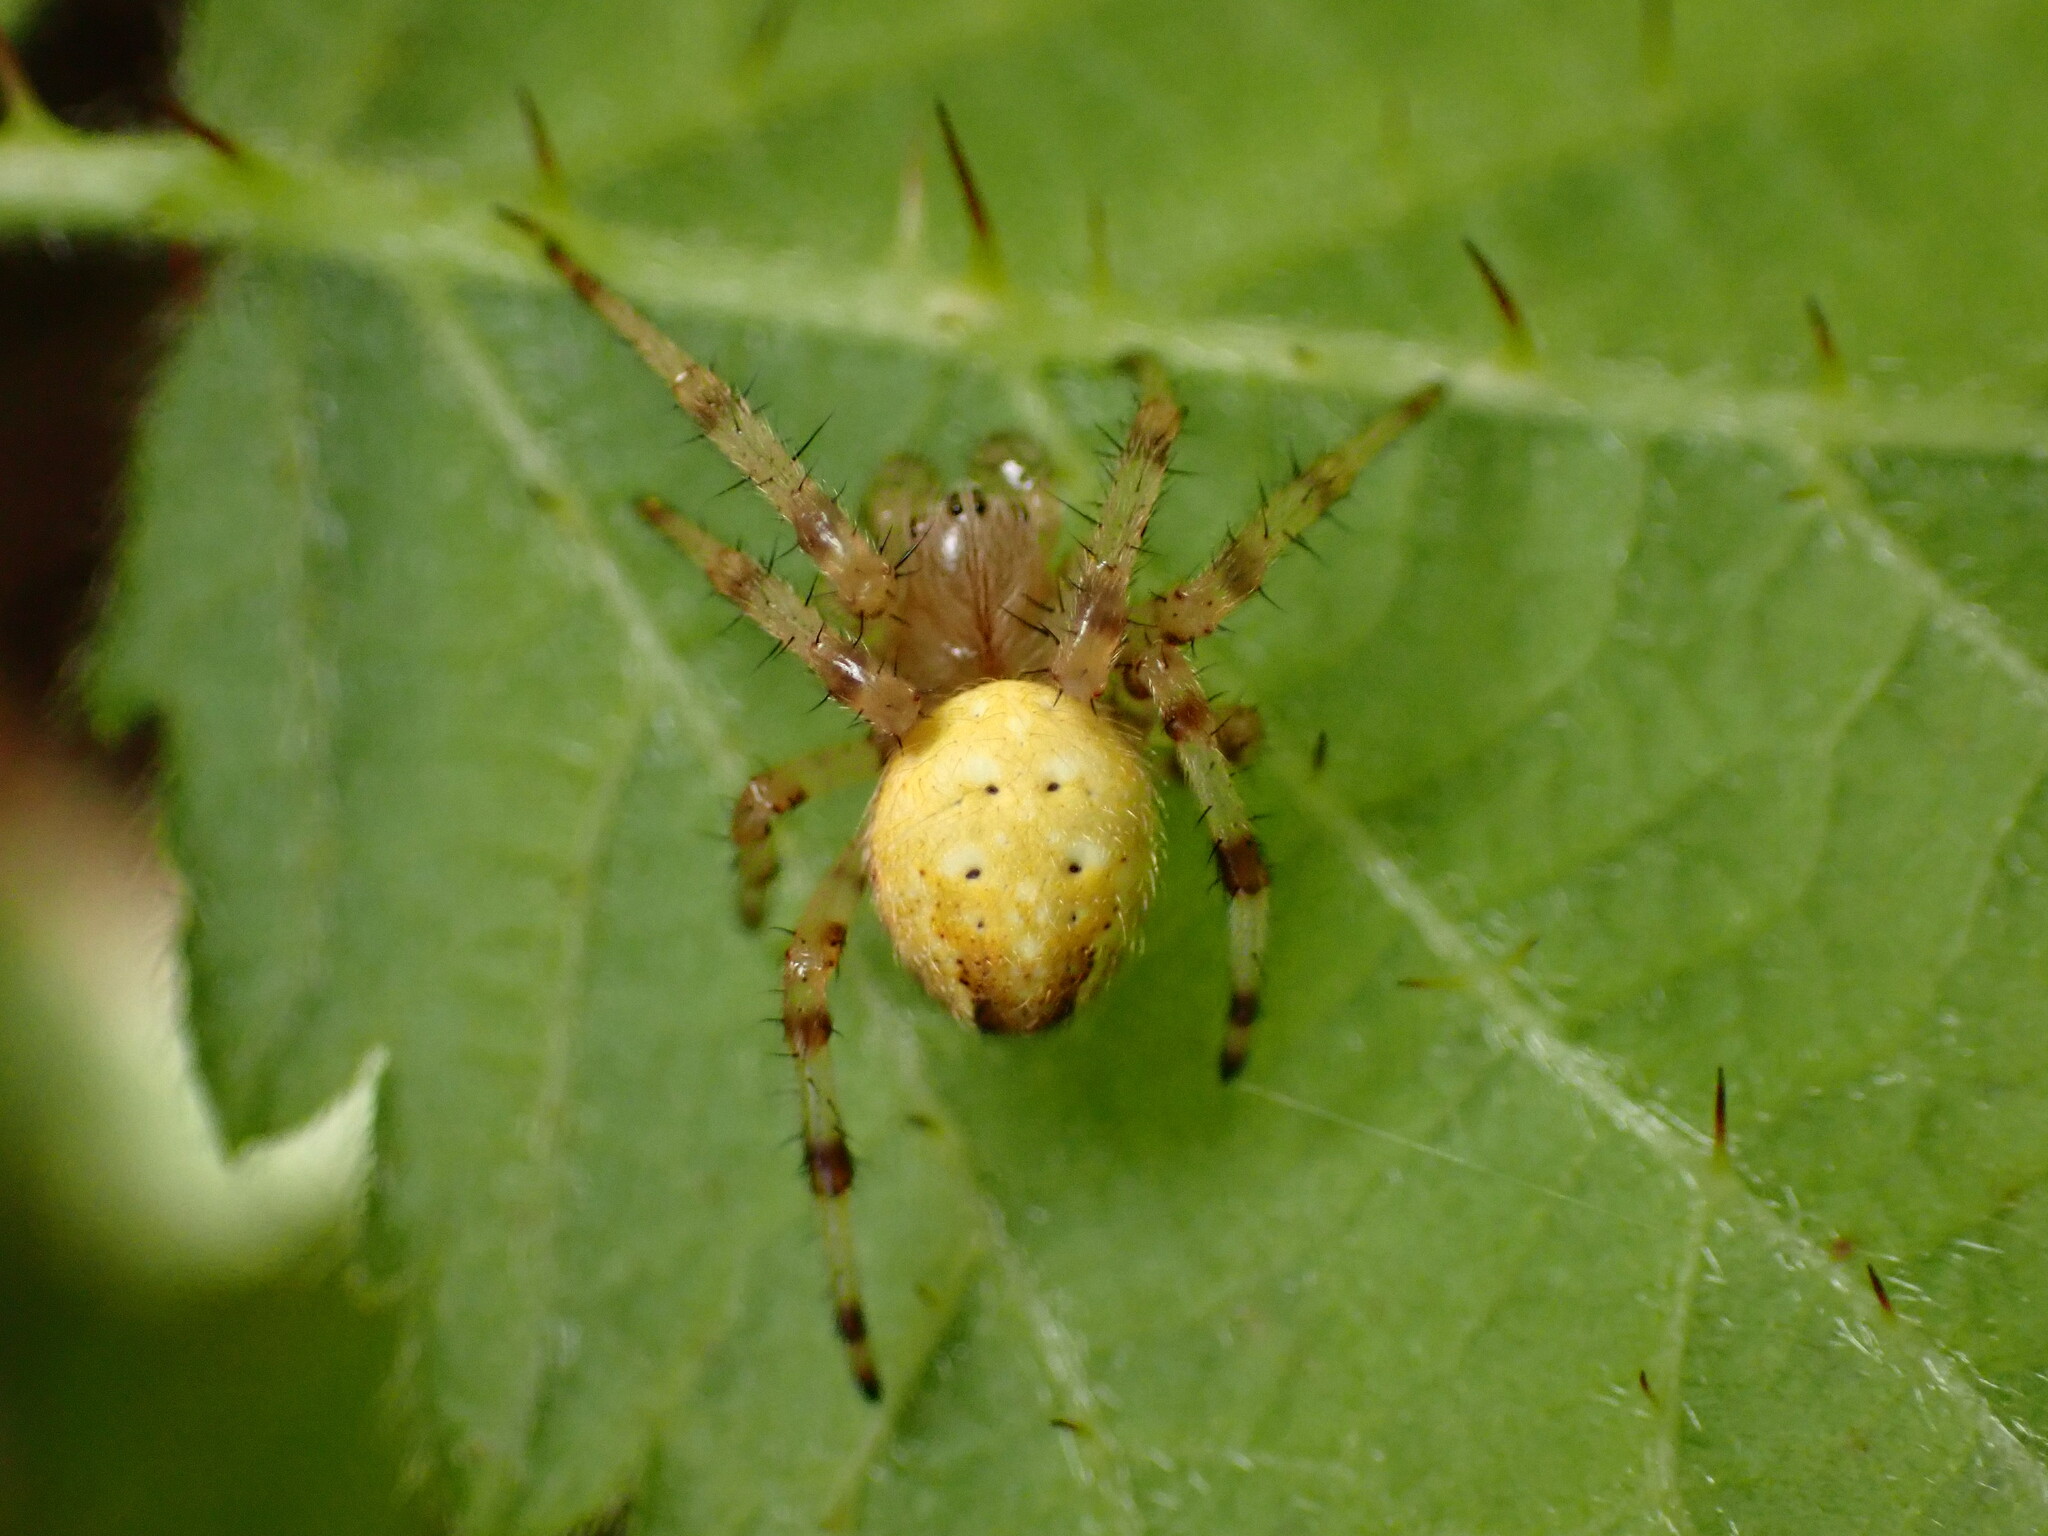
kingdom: Animalia
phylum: Arthropoda
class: Arachnida
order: Araneae
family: Araneidae
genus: Araneus
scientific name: Araneus trifolium
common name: Shamrock orbweaver
